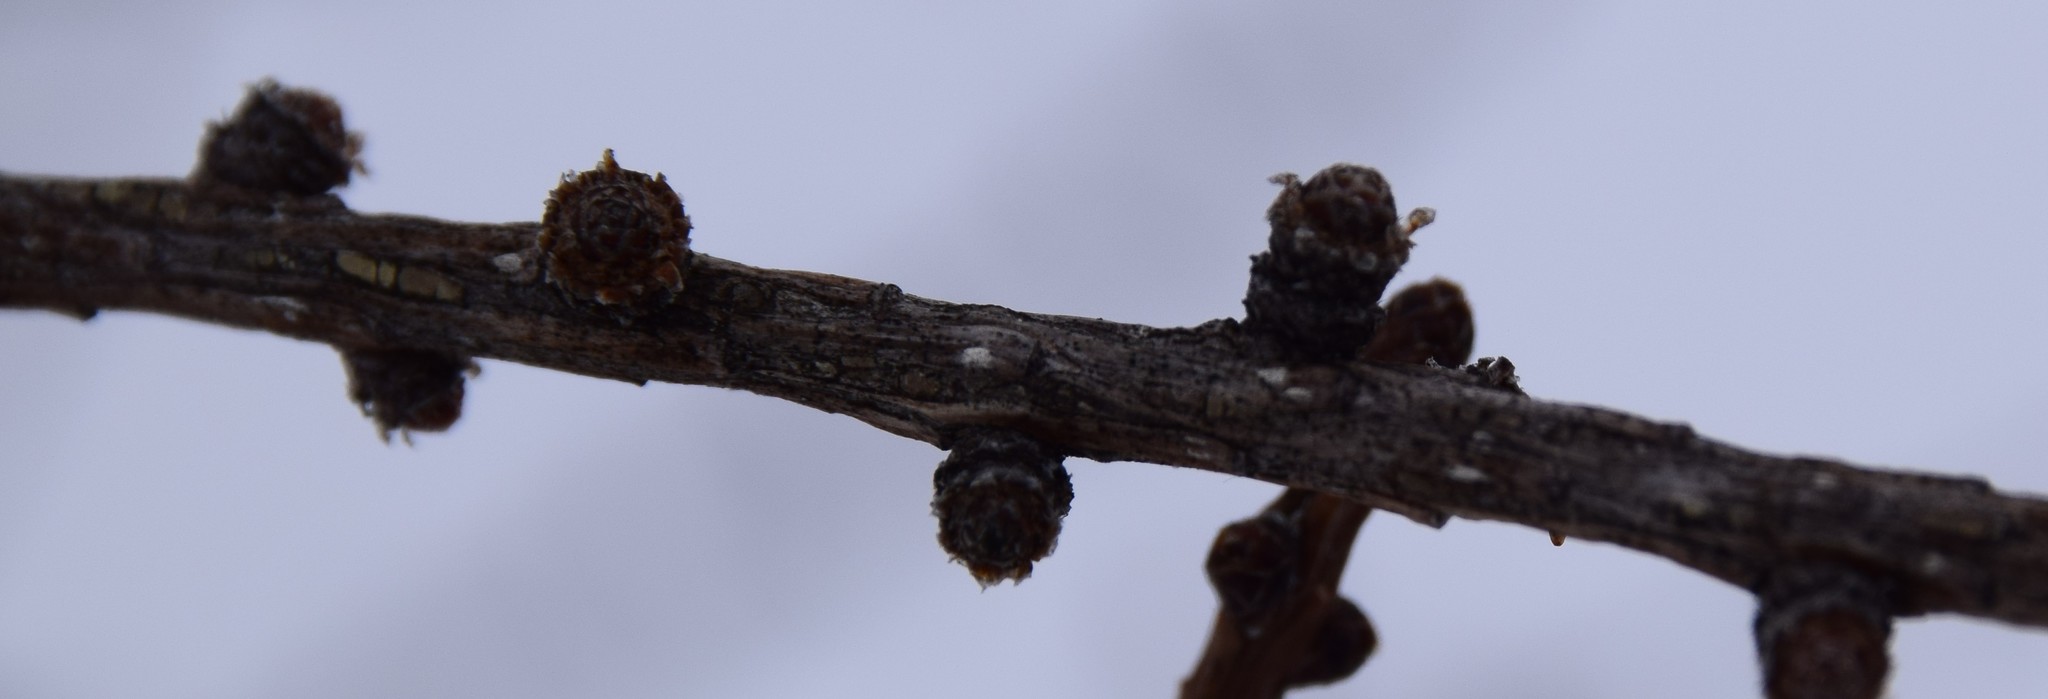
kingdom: Plantae
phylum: Tracheophyta
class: Pinopsida
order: Pinales
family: Pinaceae
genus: Larix
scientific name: Larix laricina
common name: American larch
